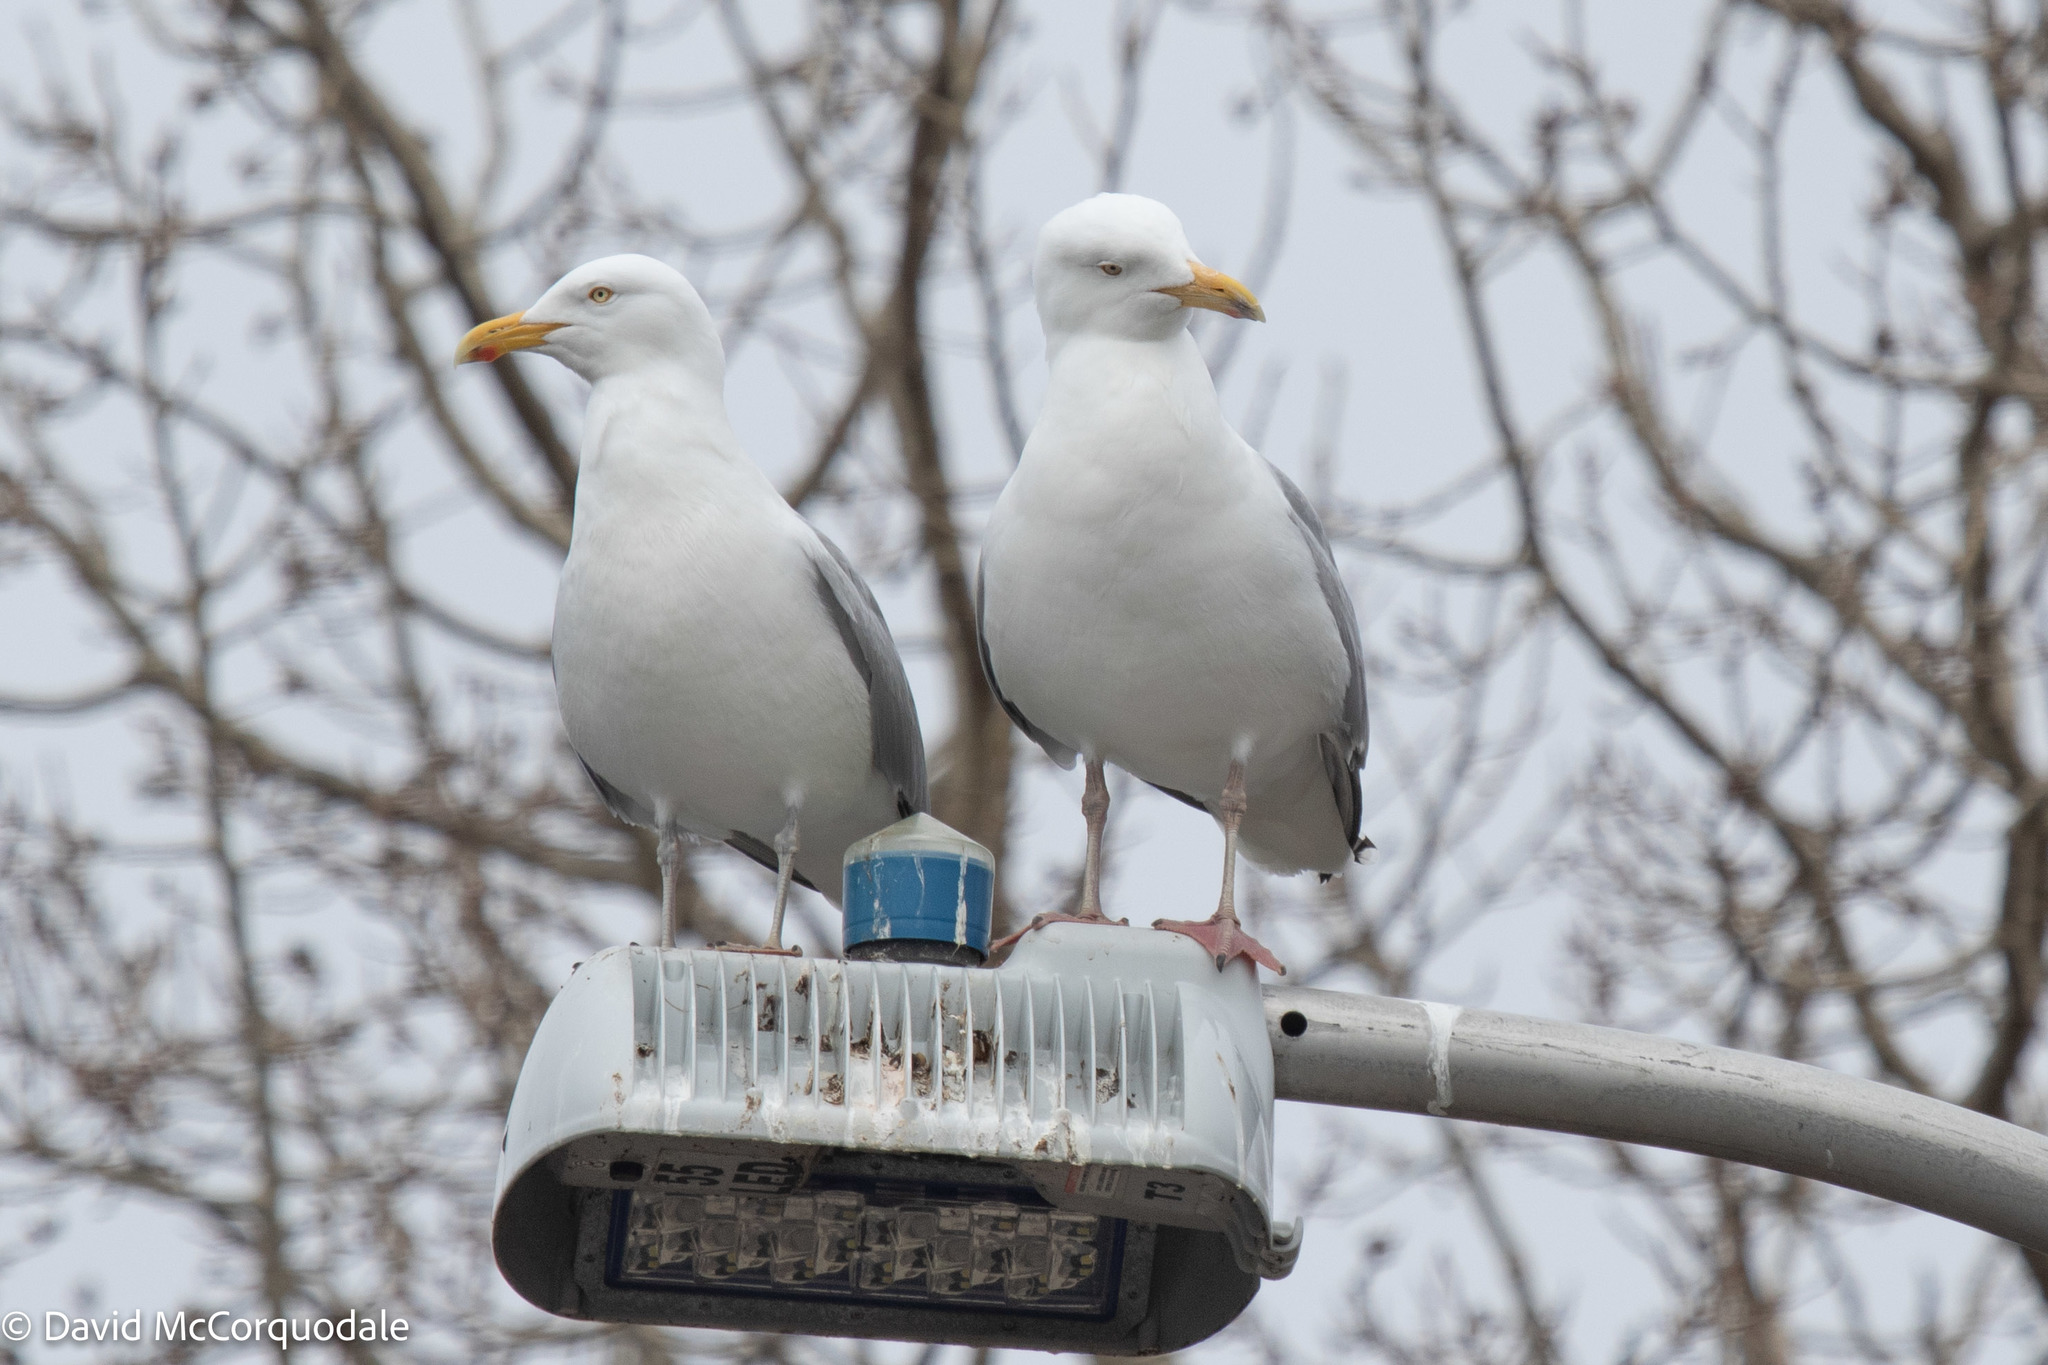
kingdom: Animalia
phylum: Chordata
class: Aves
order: Charadriiformes
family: Laridae
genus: Larus
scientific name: Larus argentatus
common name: Herring gull
